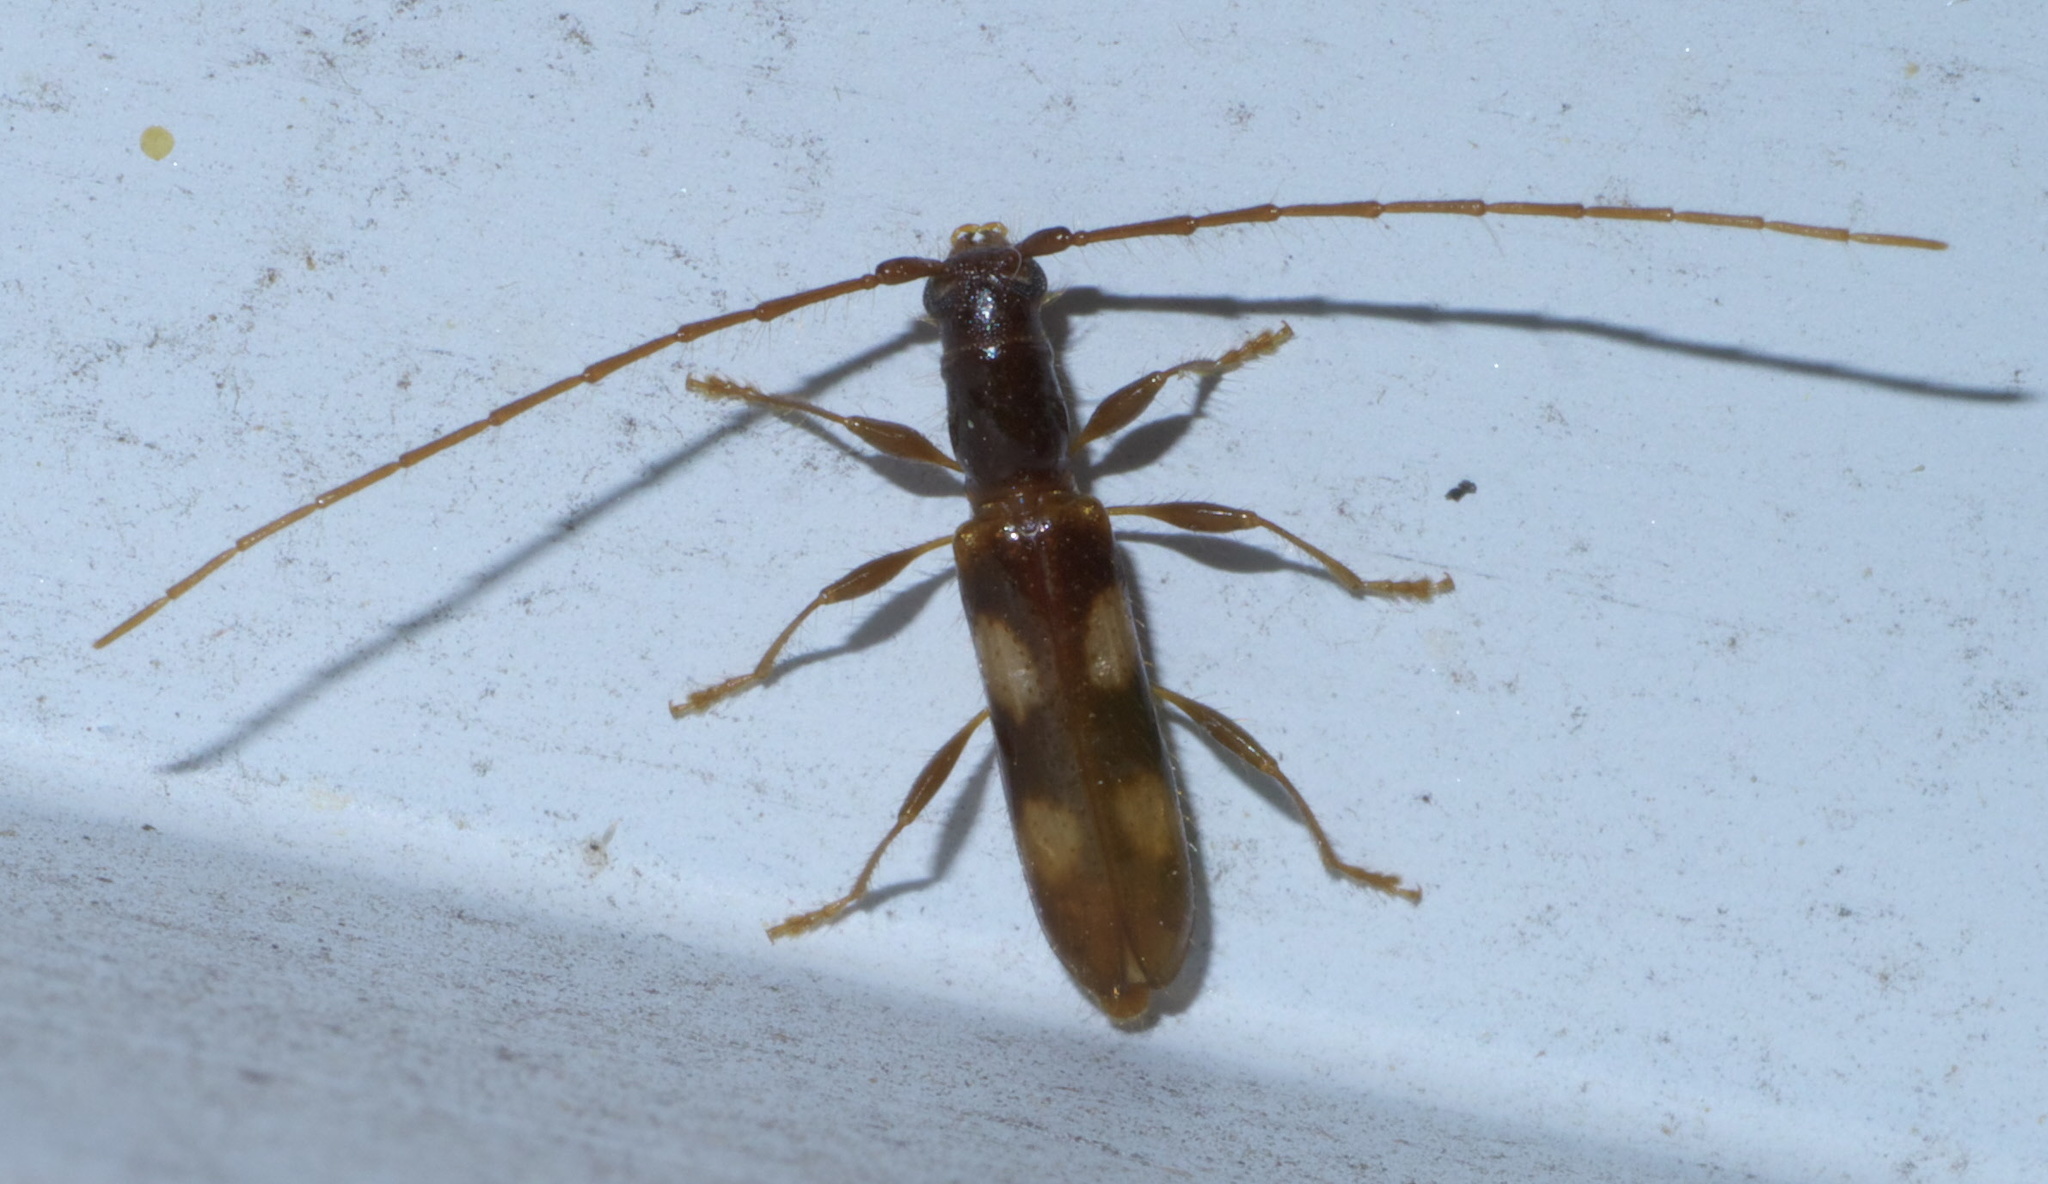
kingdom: Animalia
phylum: Arthropoda
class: Insecta
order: Coleoptera
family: Cerambycidae
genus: Heterachthes
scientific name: Heterachthes quadrimaculatus
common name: Four-spotted hickory borer
